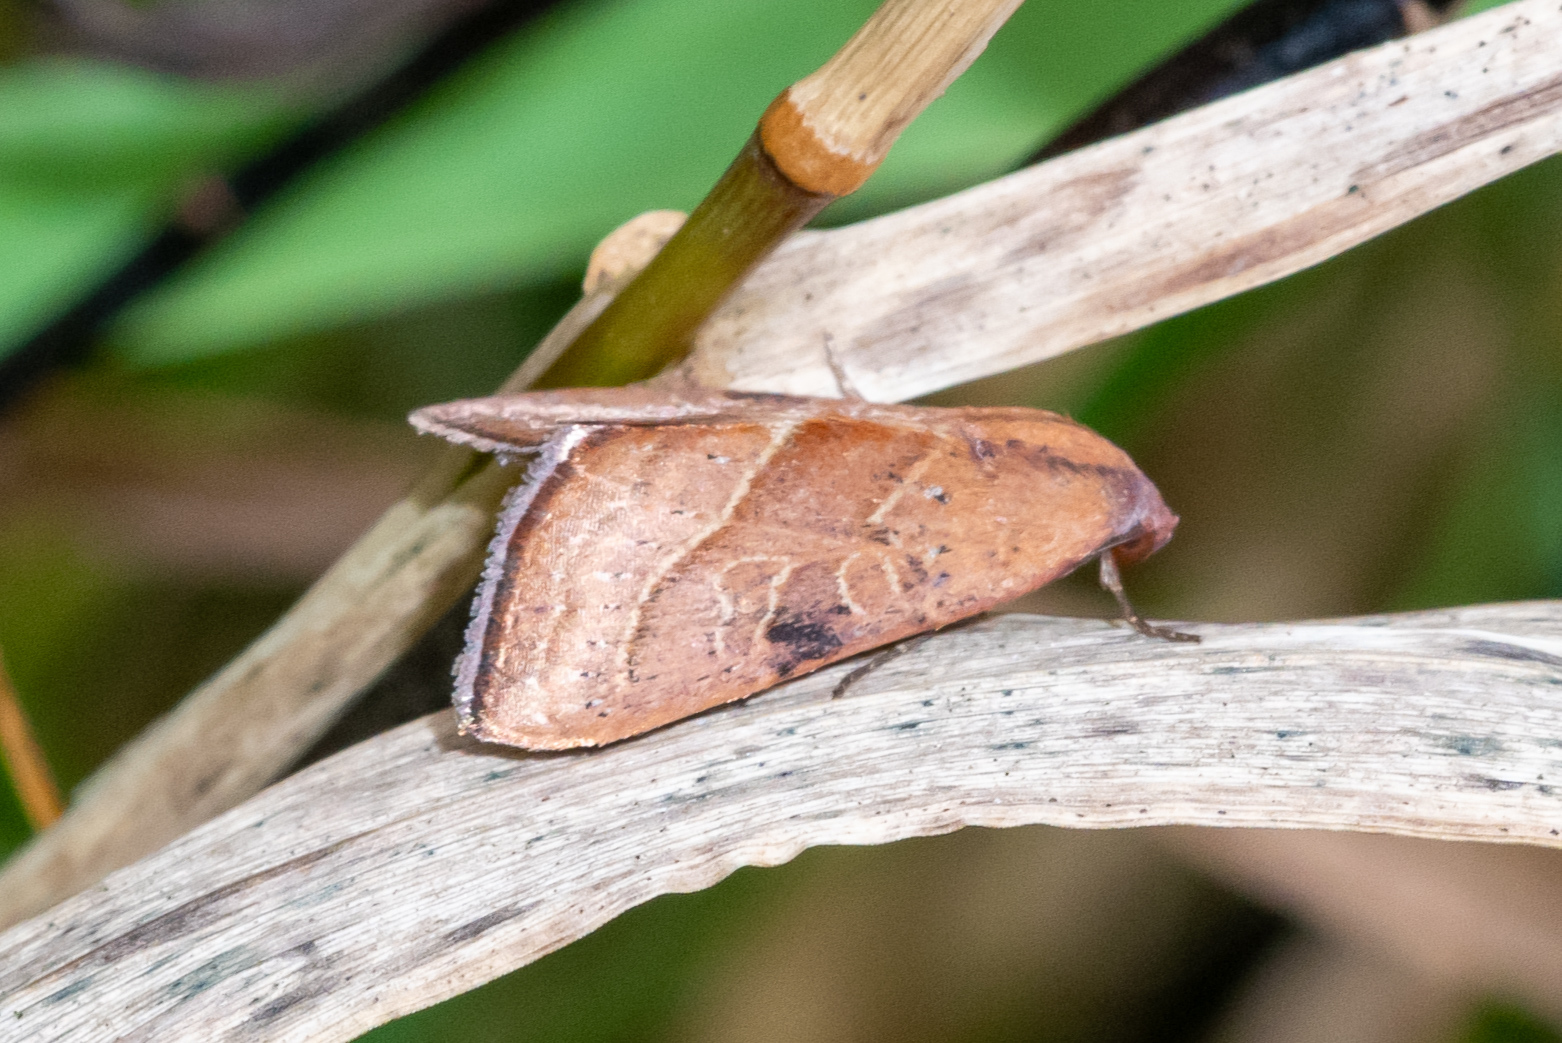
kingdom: Animalia
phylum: Arthropoda
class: Insecta
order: Lepidoptera
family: Noctuidae
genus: Galgula
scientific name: Galgula partita
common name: Wedgeling
